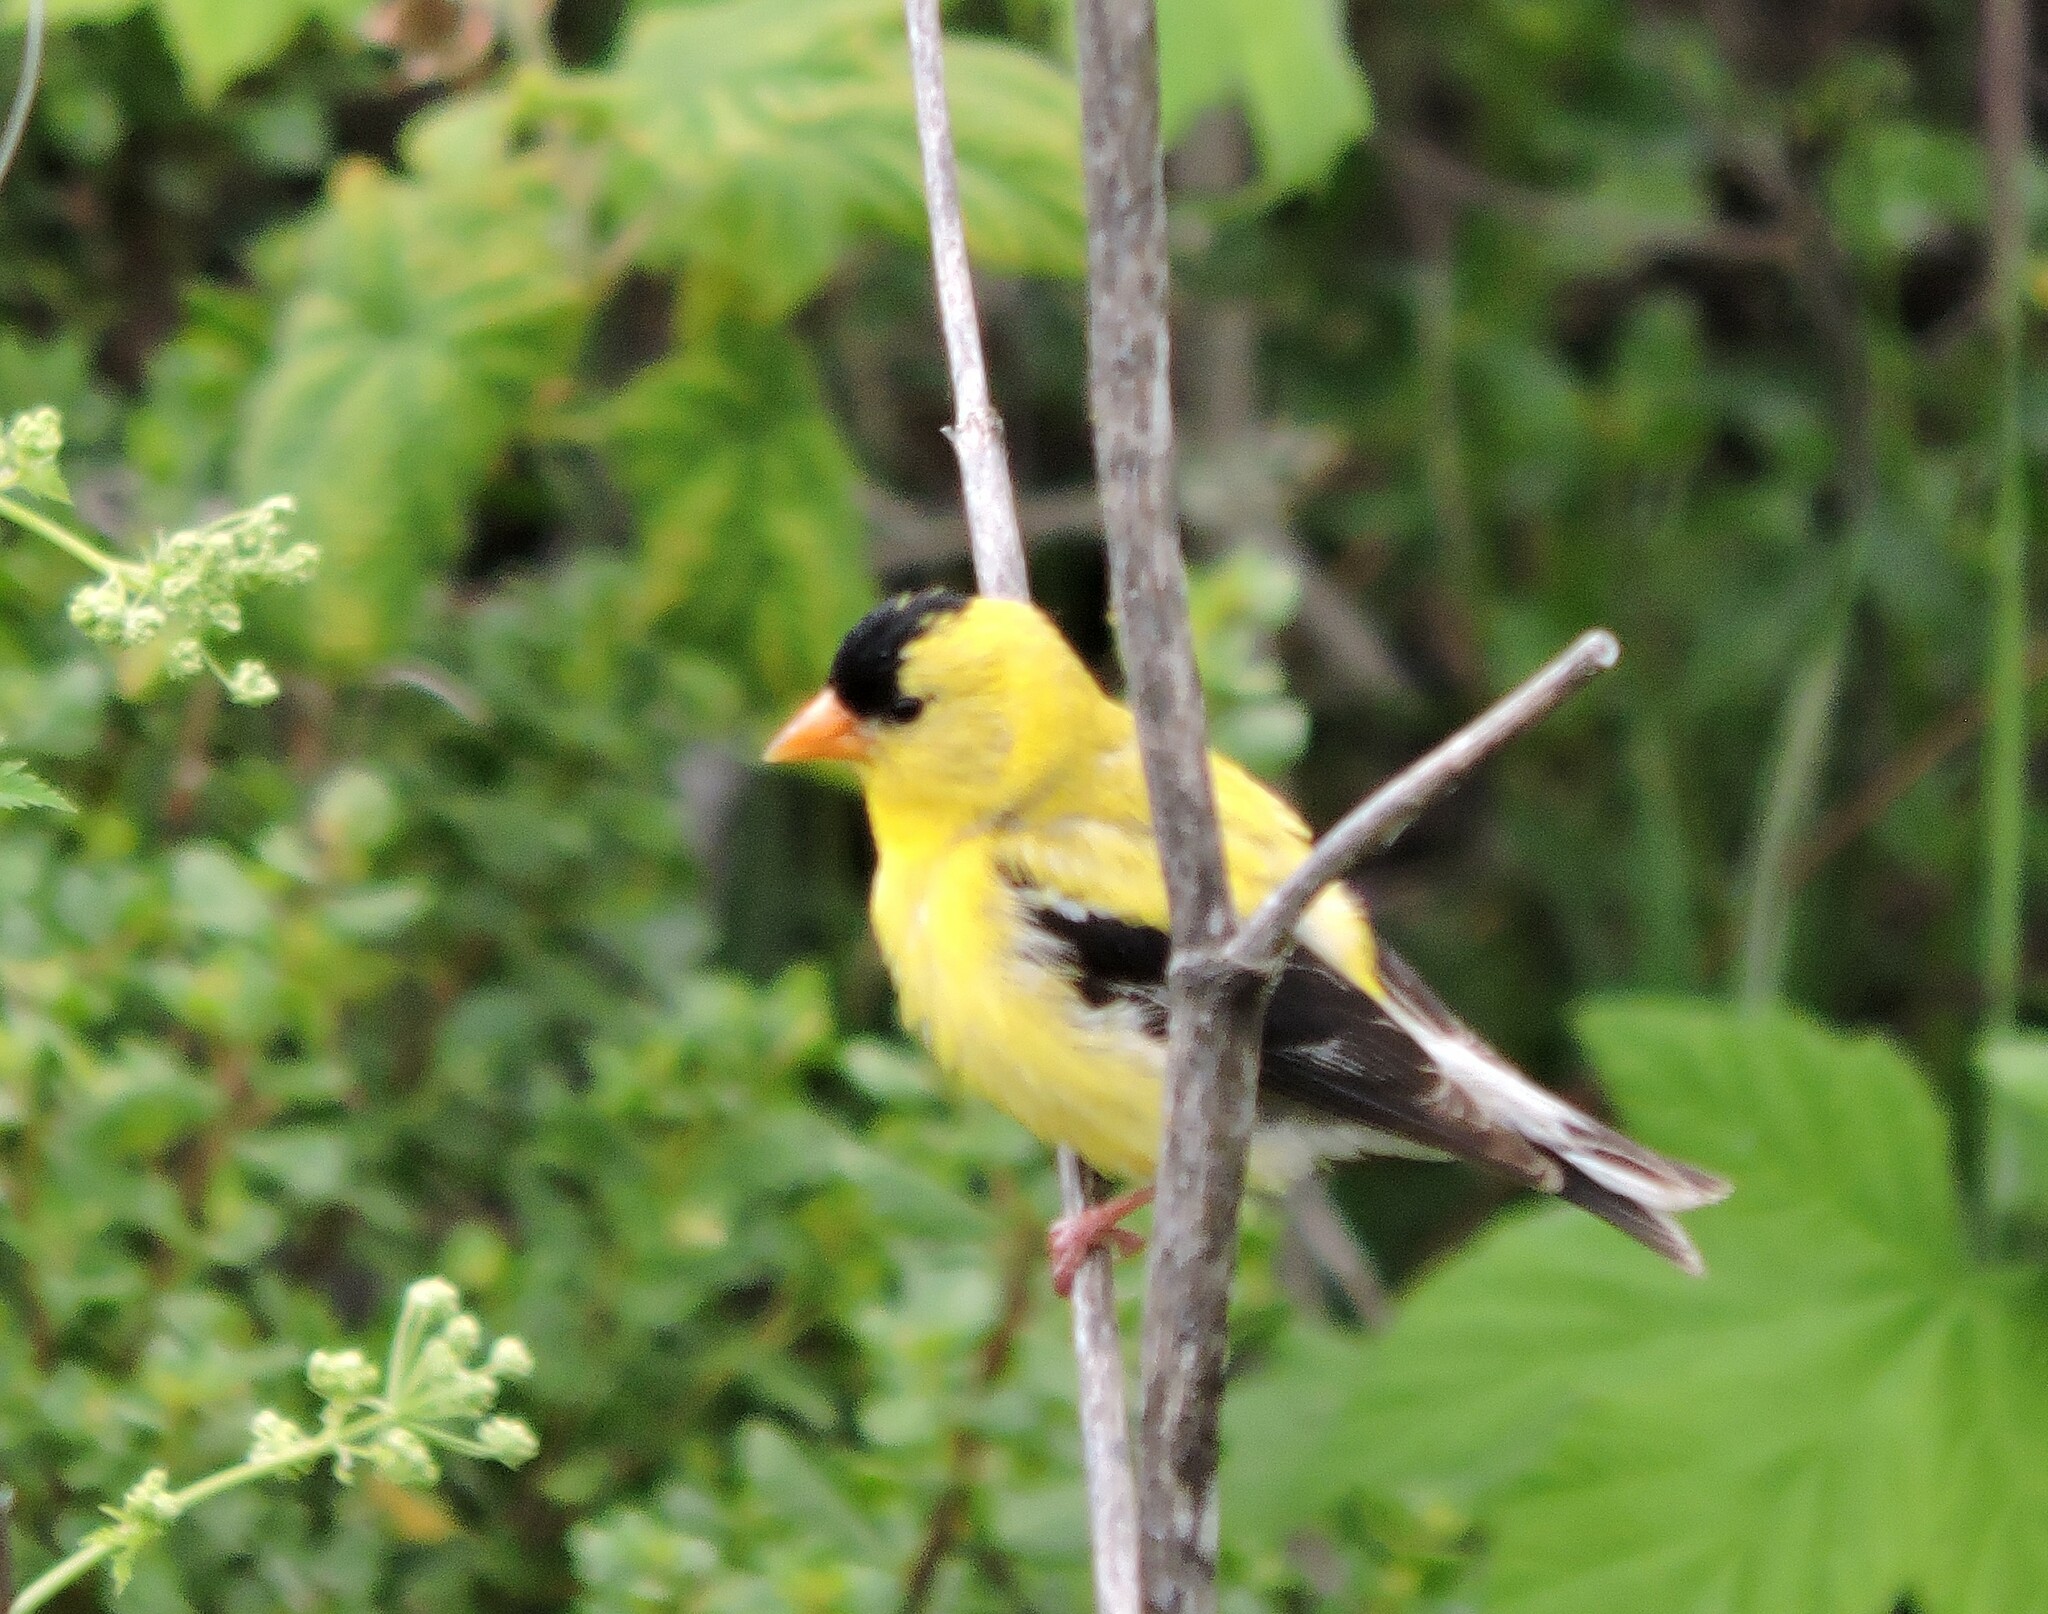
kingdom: Animalia
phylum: Chordata
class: Aves
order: Passeriformes
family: Fringillidae
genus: Spinus
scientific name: Spinus tristis
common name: American goldfinch
